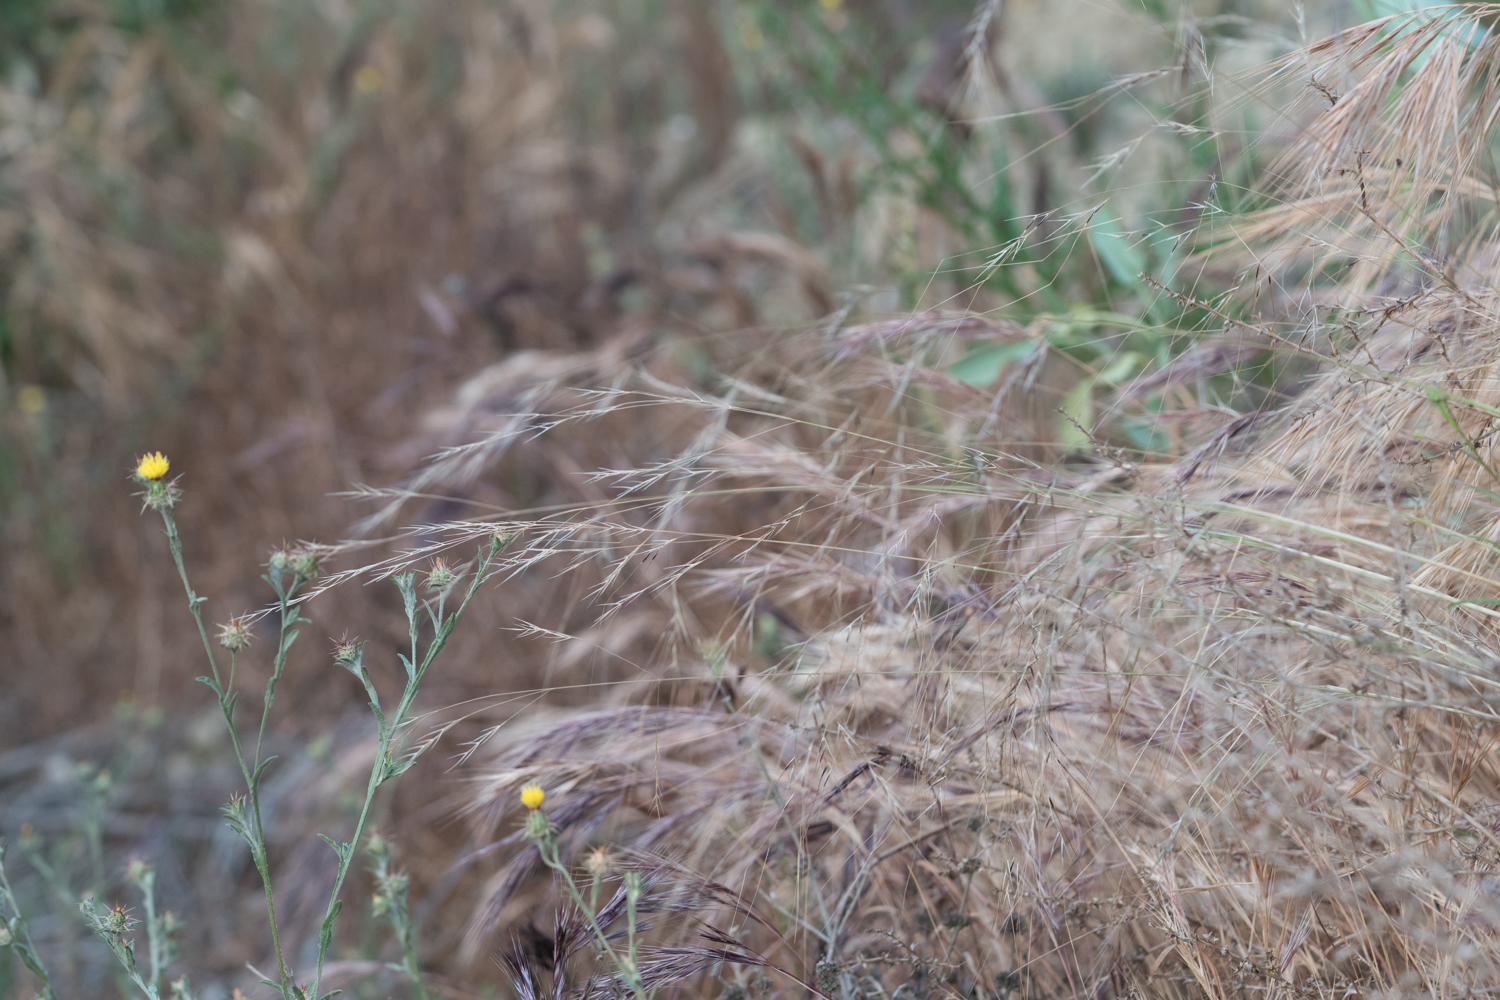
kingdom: Plantae
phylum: Tracheophyta
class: Liliopsida
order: Poales
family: Poaceae
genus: Nassella
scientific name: Nassella pulchra
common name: Purple needlegrass
